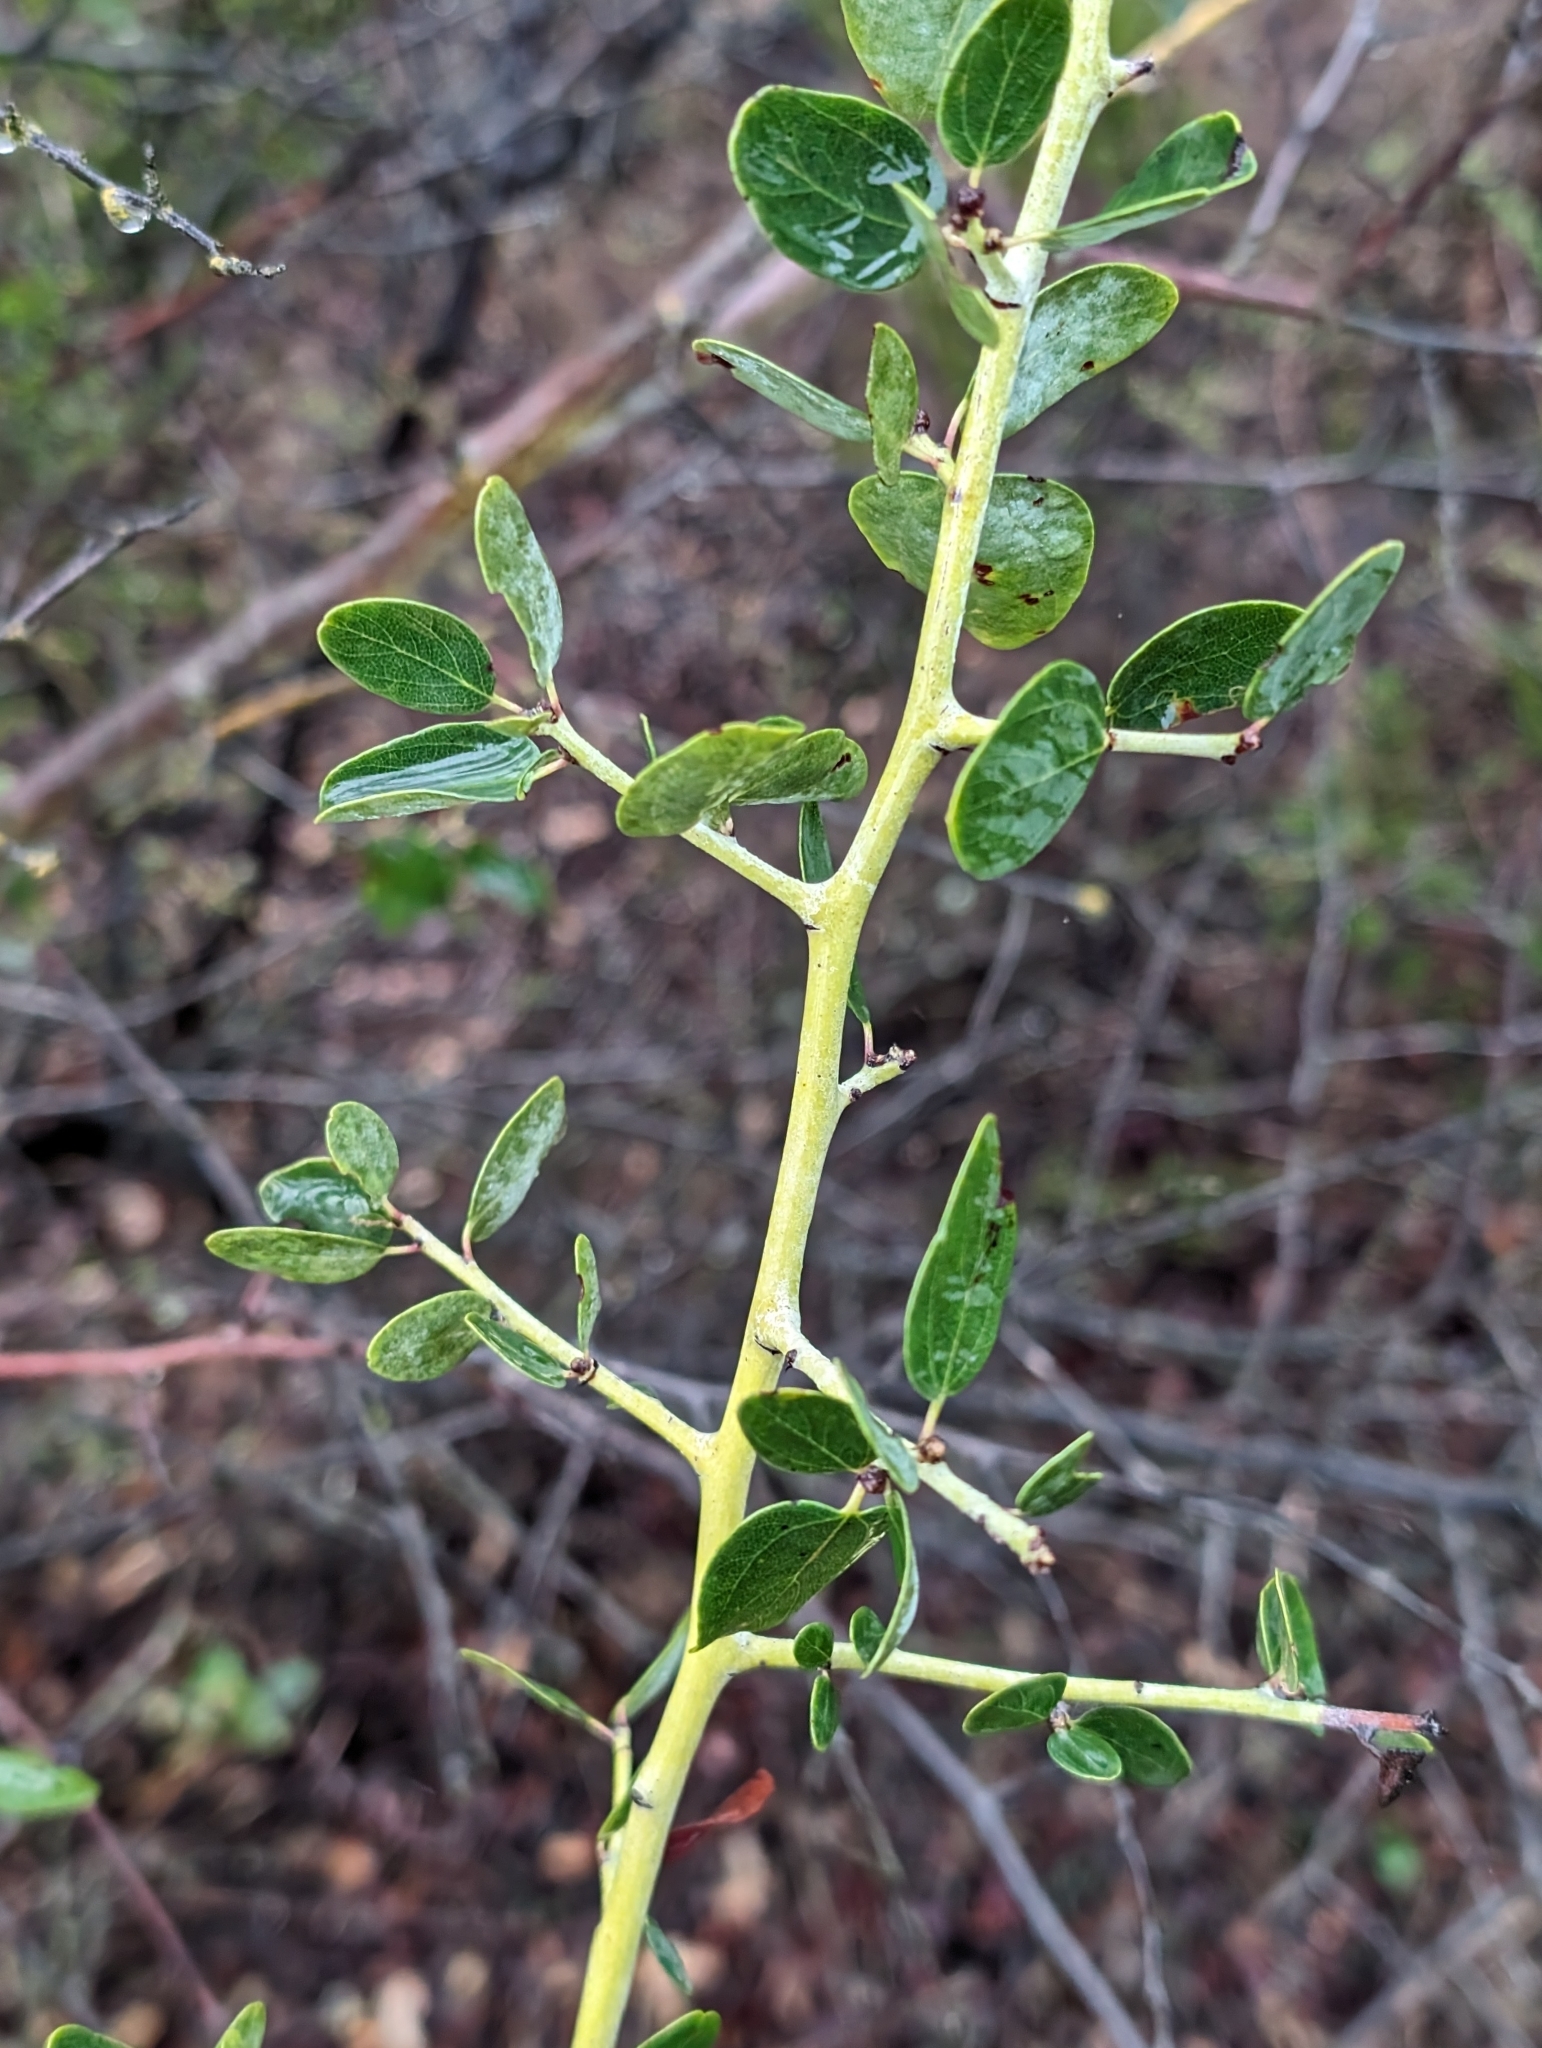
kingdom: Plantae
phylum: Tracheophyta
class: Magnoliopsida
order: Rosales
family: Rhamnaceae
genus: Ceanothus
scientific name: Ceanothus leucodermis
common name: Chaparral whitethorn
